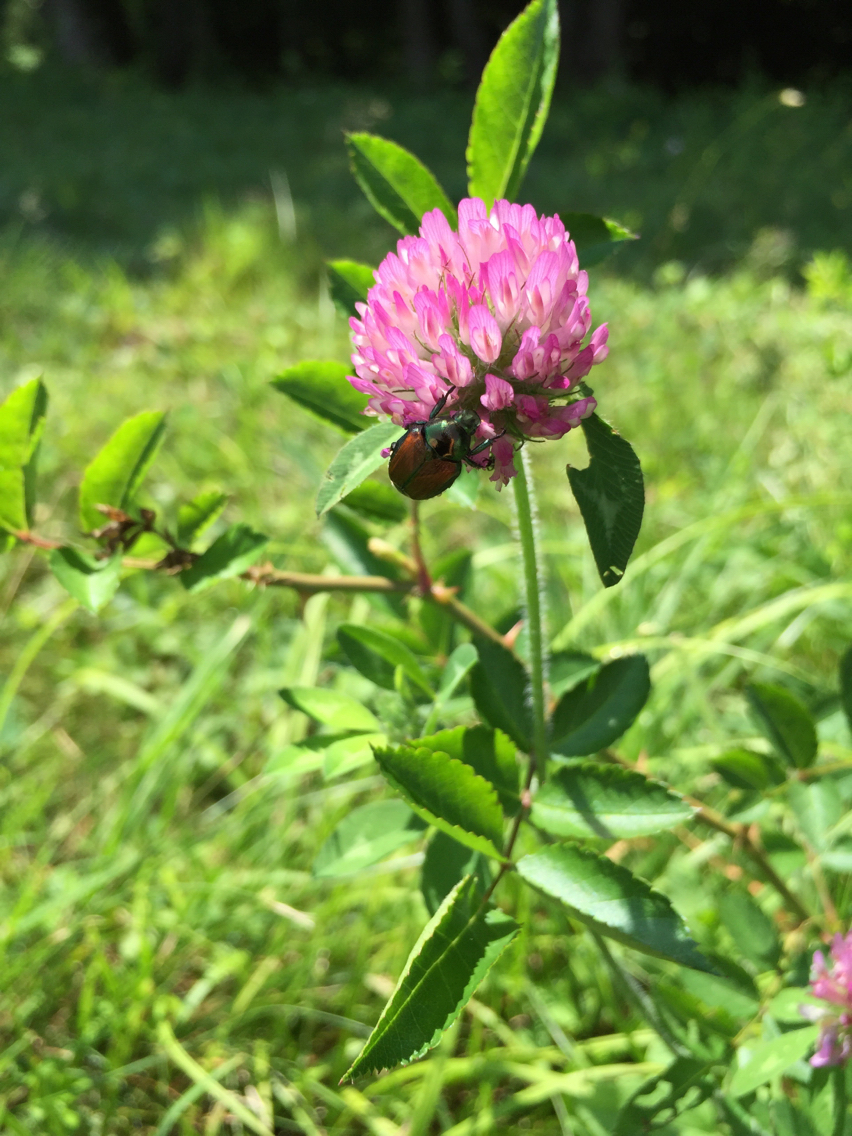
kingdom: Animalia
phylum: Arthropoda
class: Insecta
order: Coleoptera
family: Scarabaeidae
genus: Popillia
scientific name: Popillia japonica
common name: Japanese beetle
